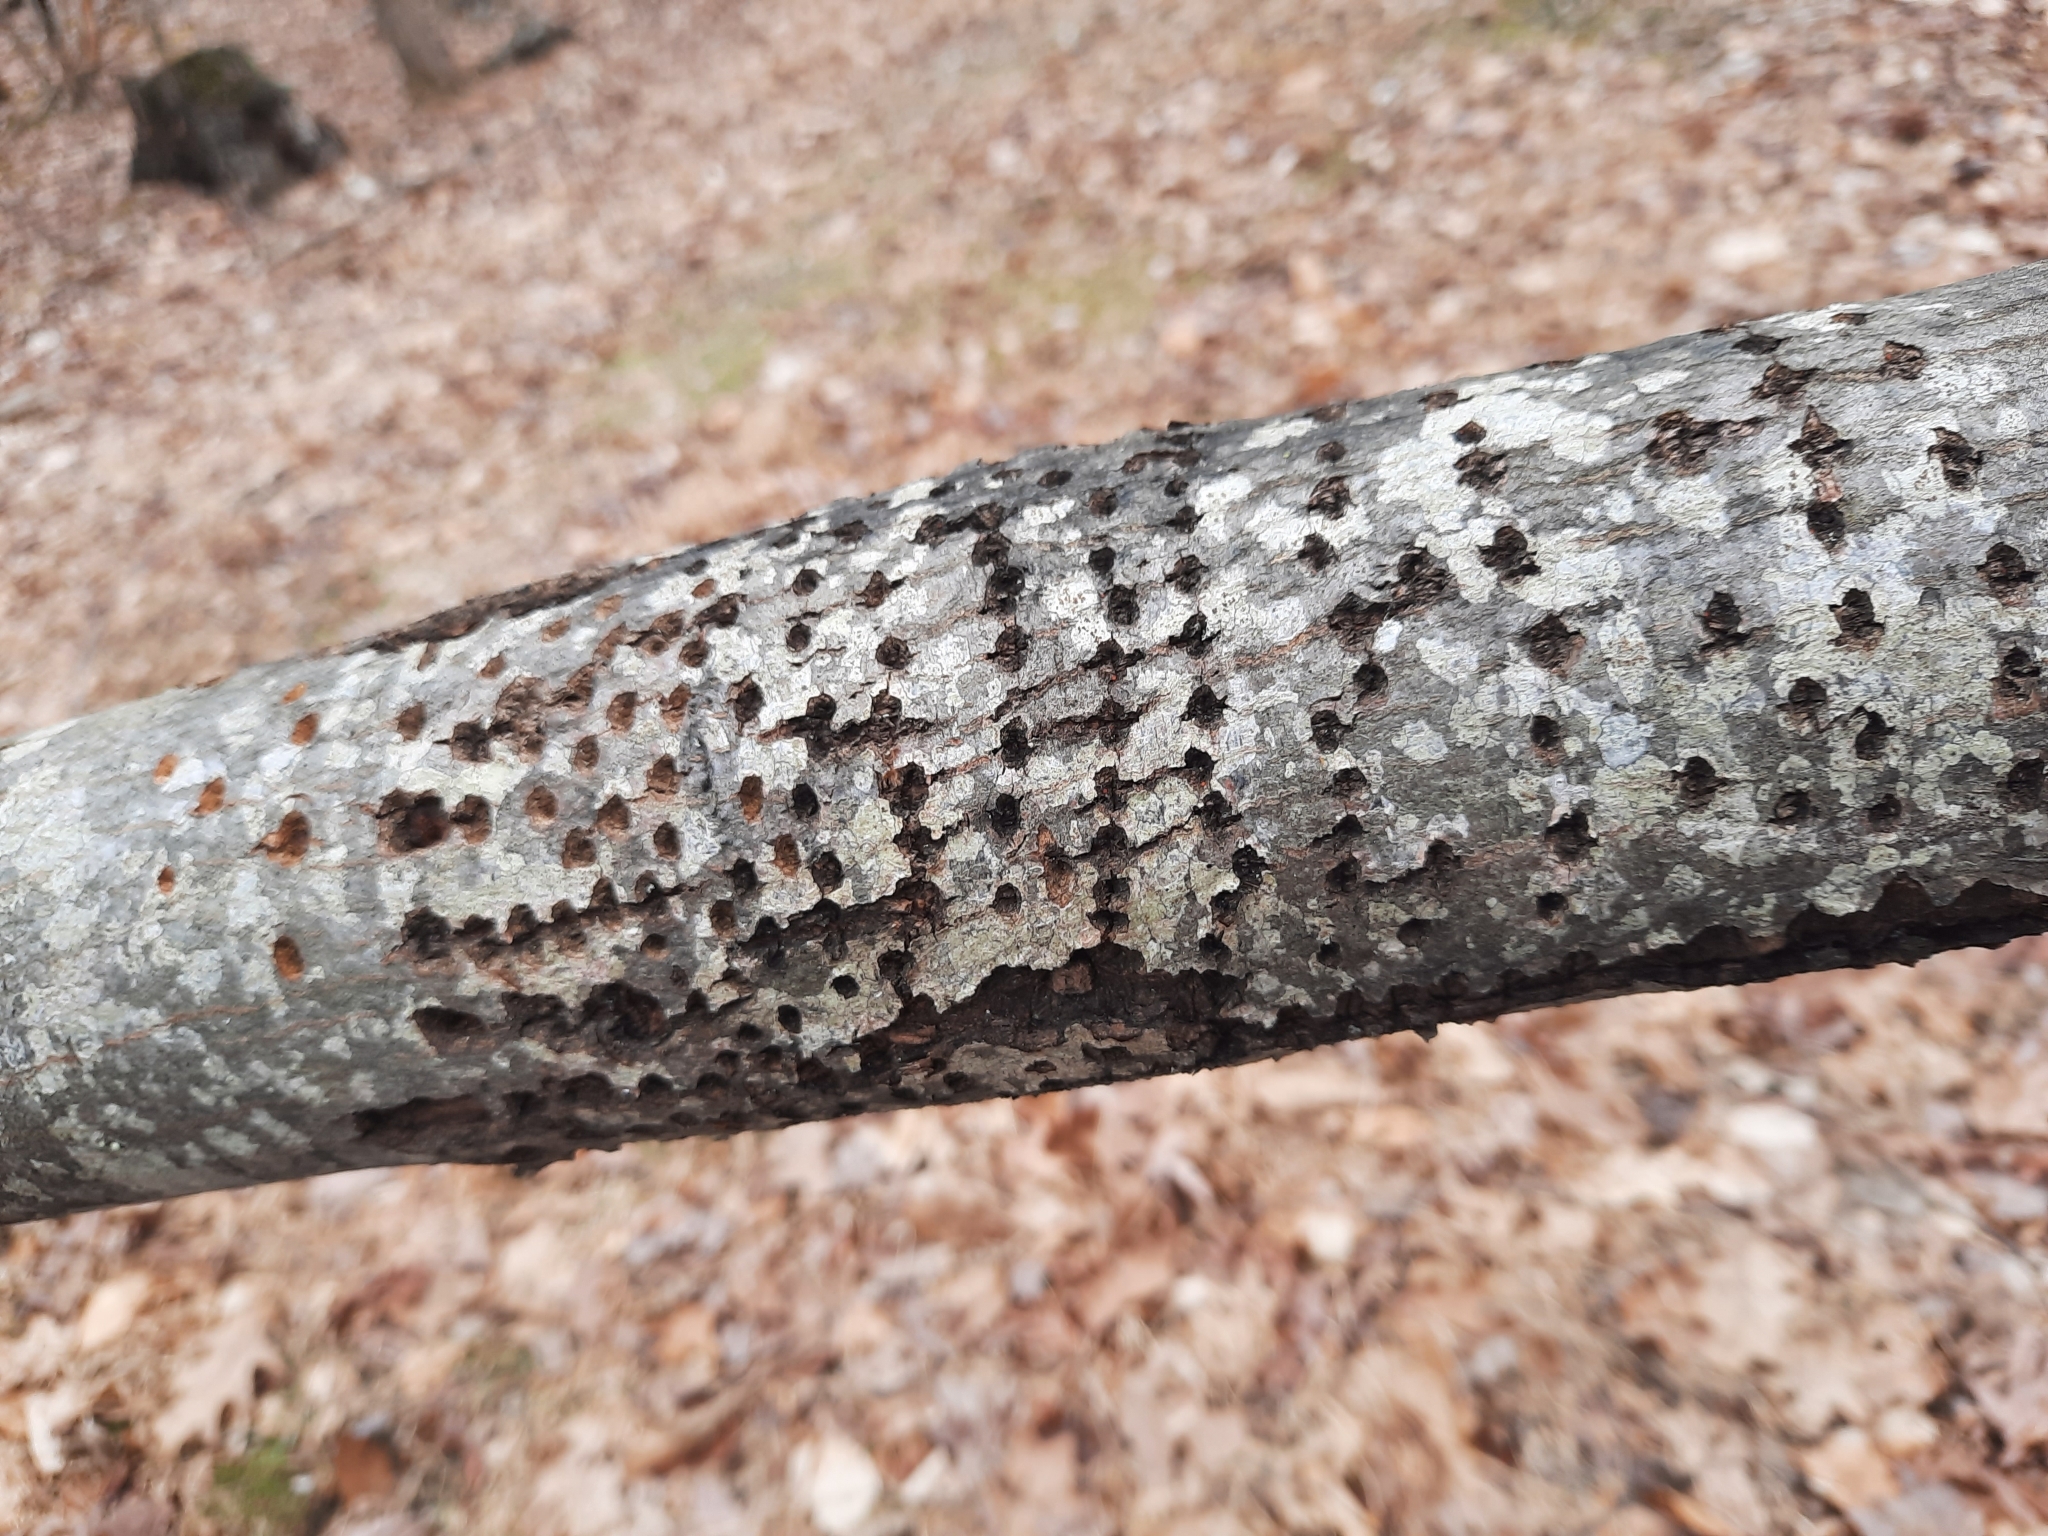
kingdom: Animalia
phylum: Chordata
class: Aves
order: Piciformes
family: Picidae
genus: Sphyrapicus
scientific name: Sphyrapicus varius
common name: Yellow-bellied sapsucker
